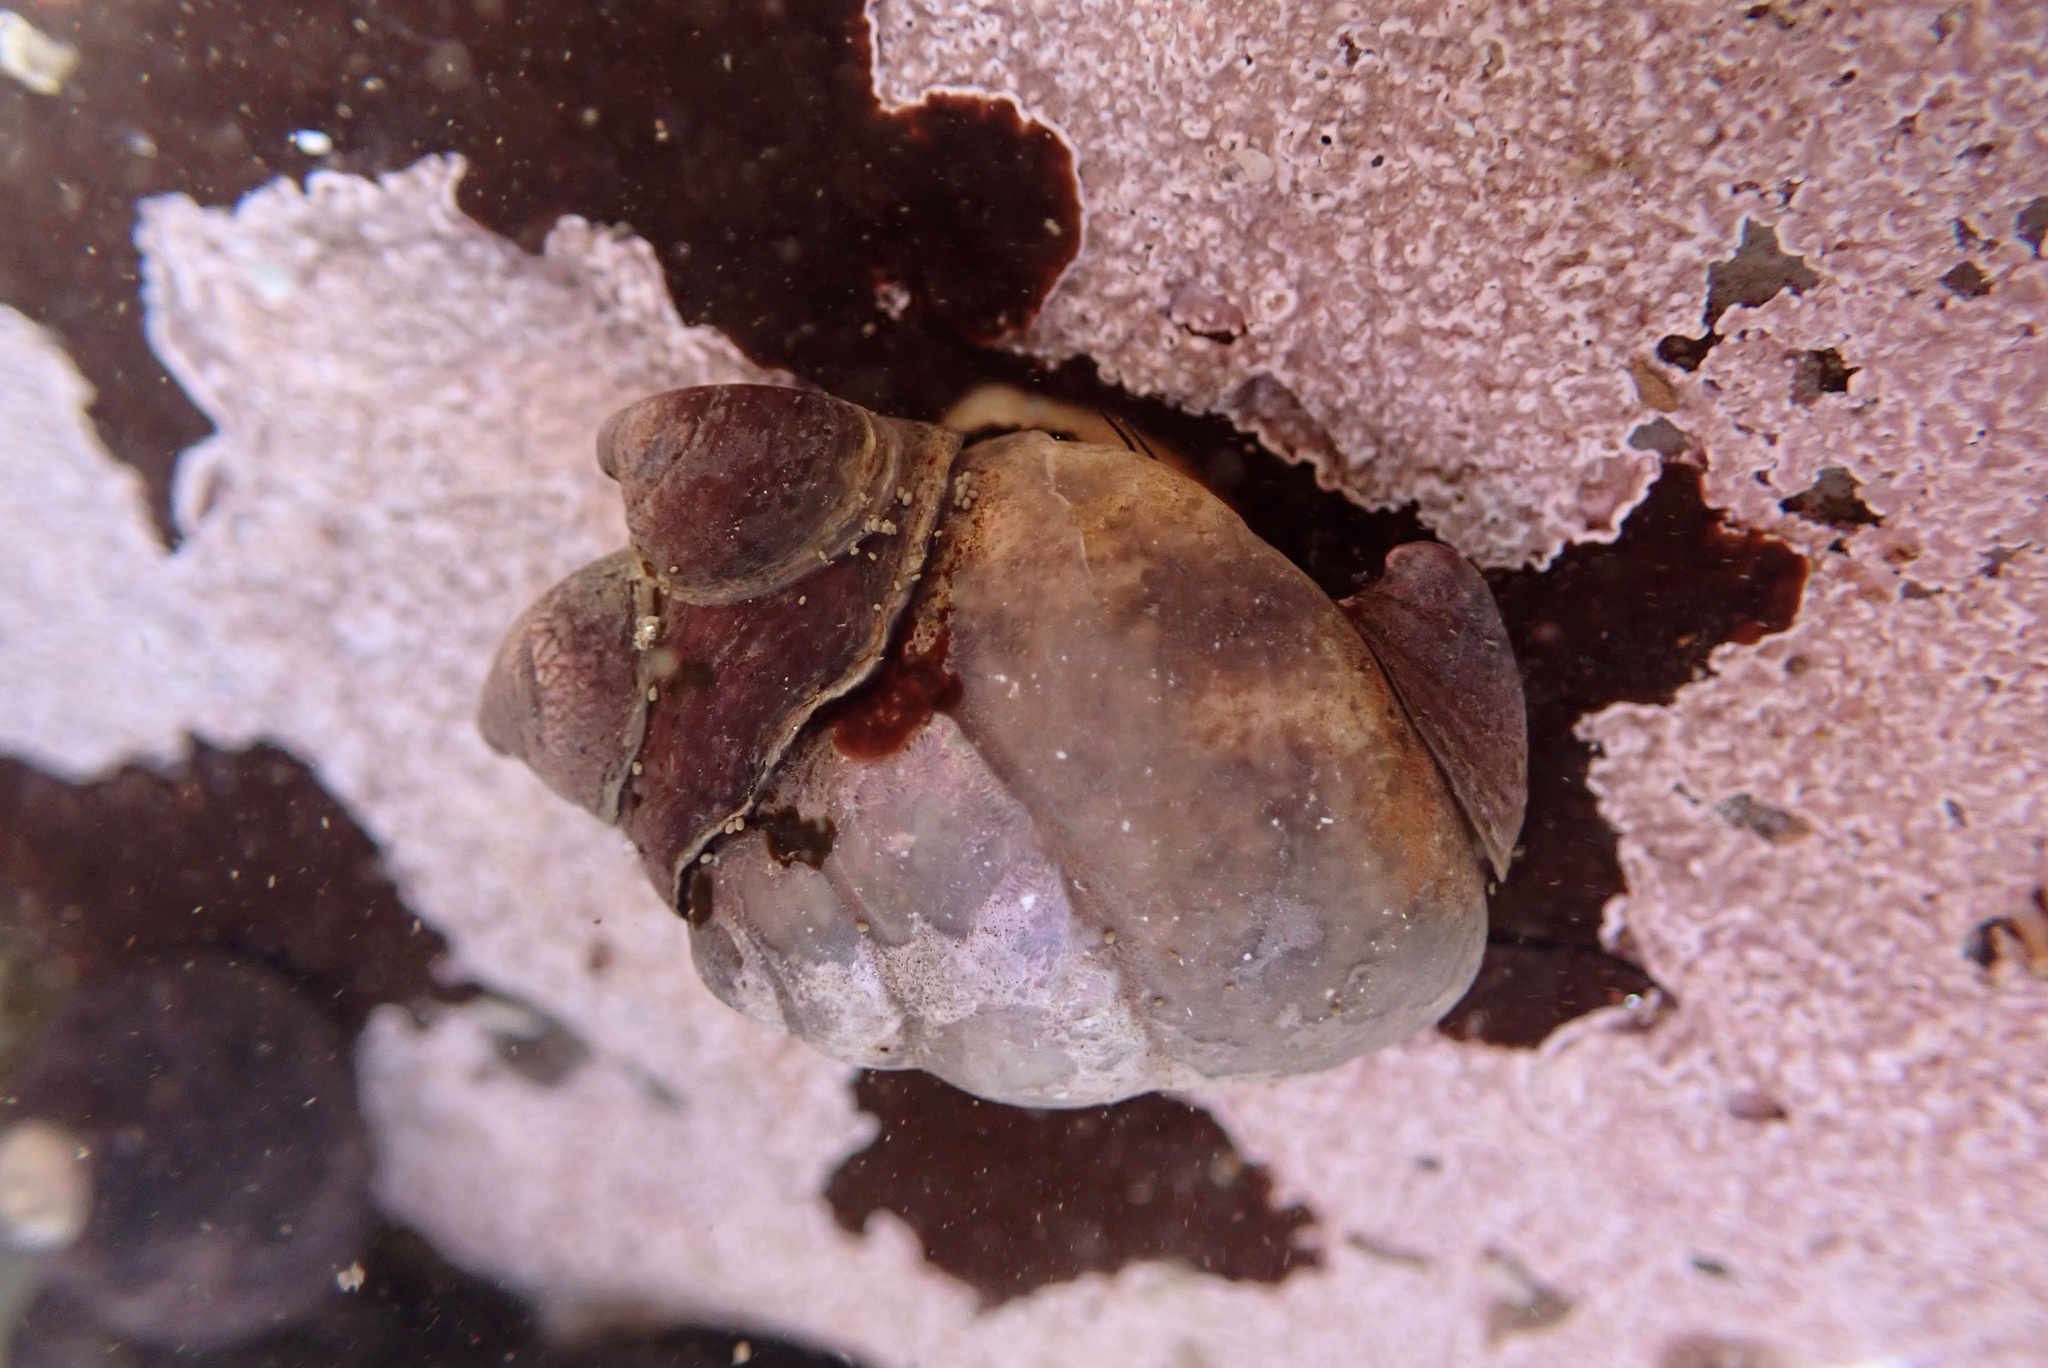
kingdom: Animalia
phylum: Mollusca
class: Gastropoda
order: Littorinimorpha
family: Calyptraeidae
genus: Crepidula
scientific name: Crepidula adunca
